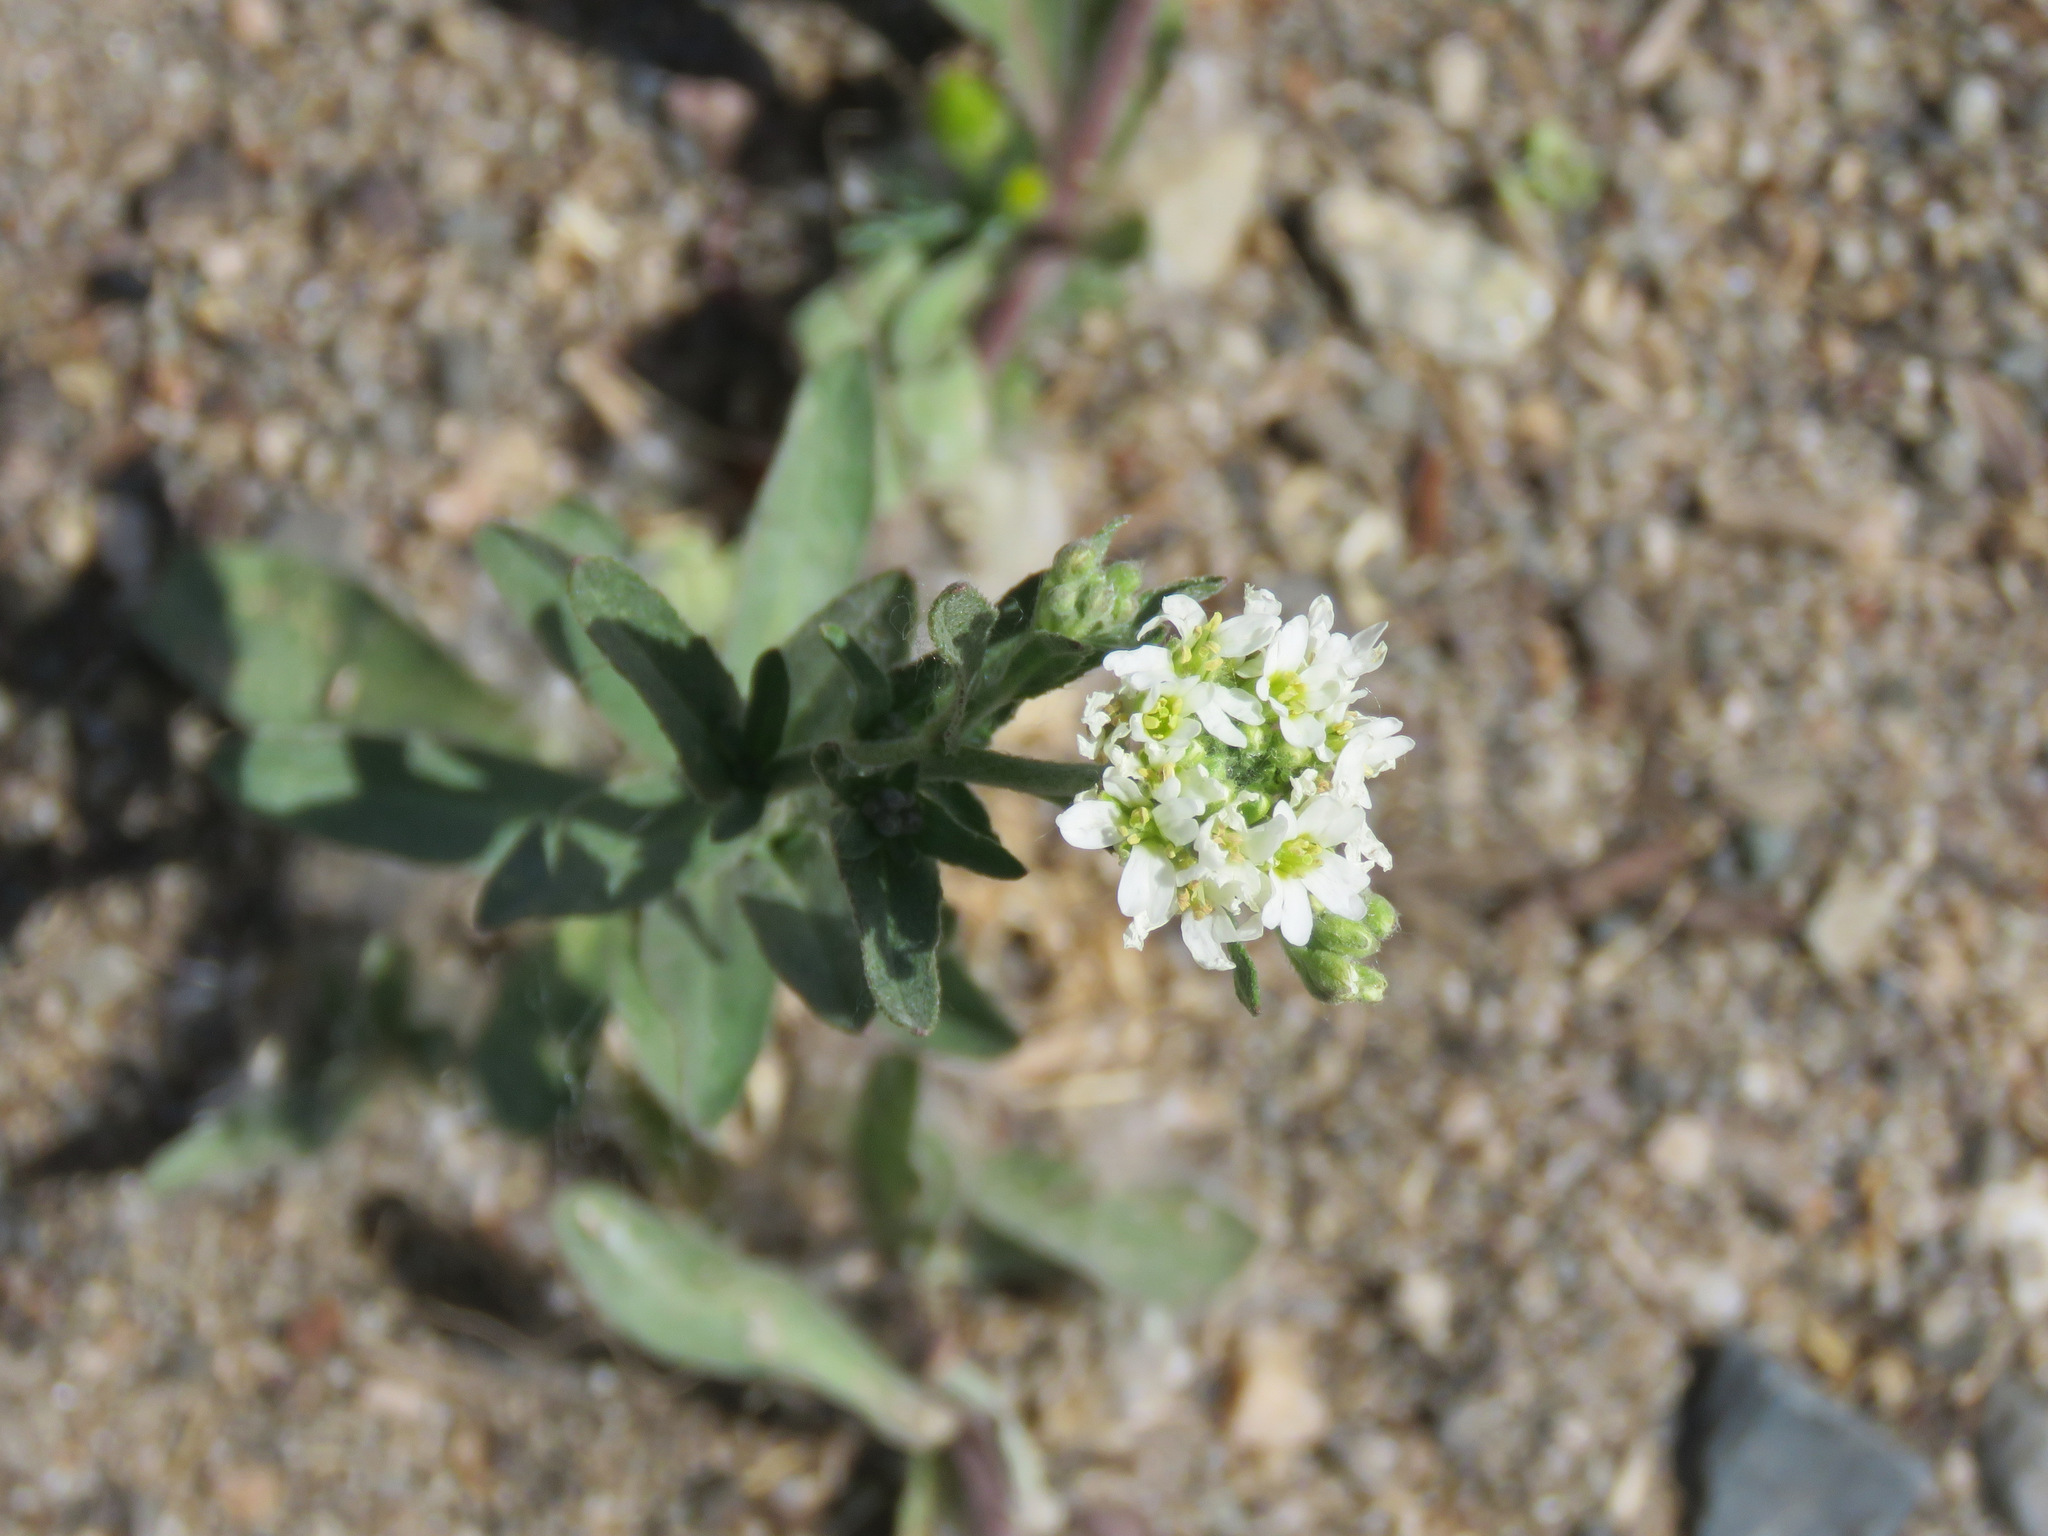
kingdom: Plantae
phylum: Tracheophyta
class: Magnoliopsida
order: Brassicales
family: Brassicaceae
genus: Berteroa
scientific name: Berteroa incana
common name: Hoary alison
